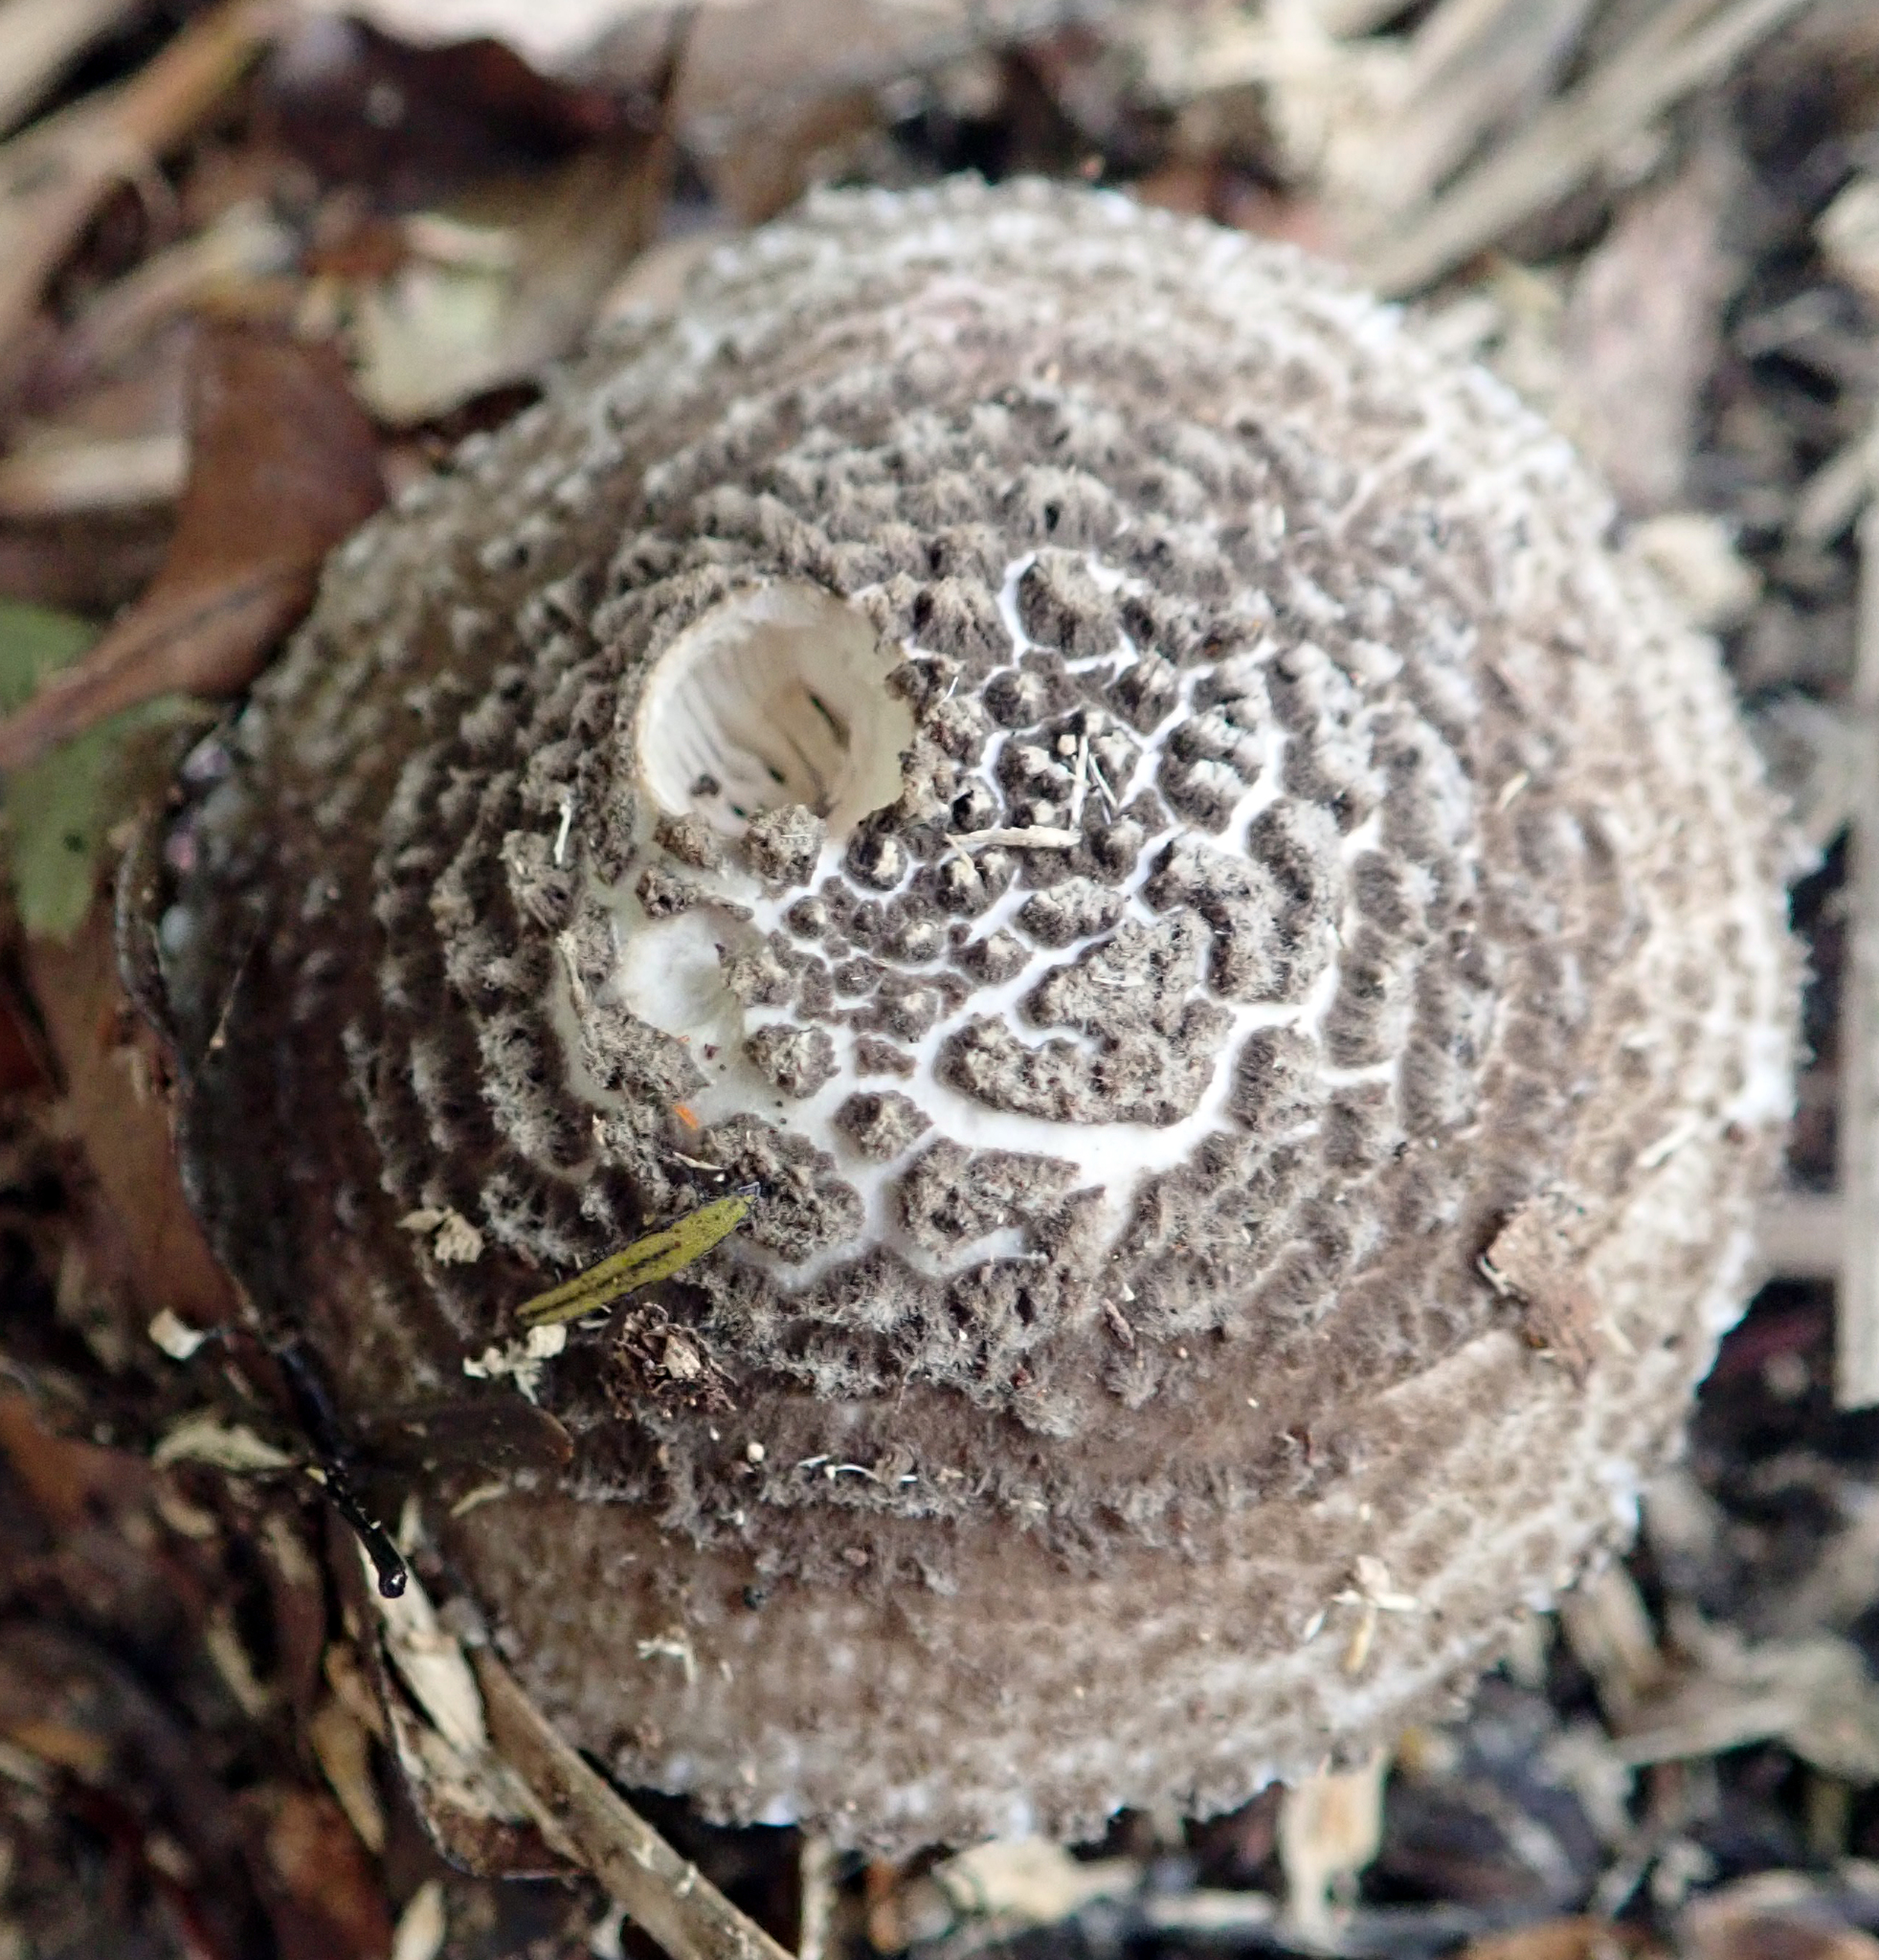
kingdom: Fungi
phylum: Basidiomycota
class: Agaricomycetes
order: Agaricales
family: Amanitaceae
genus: Amanita
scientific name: Amanita nehuta
